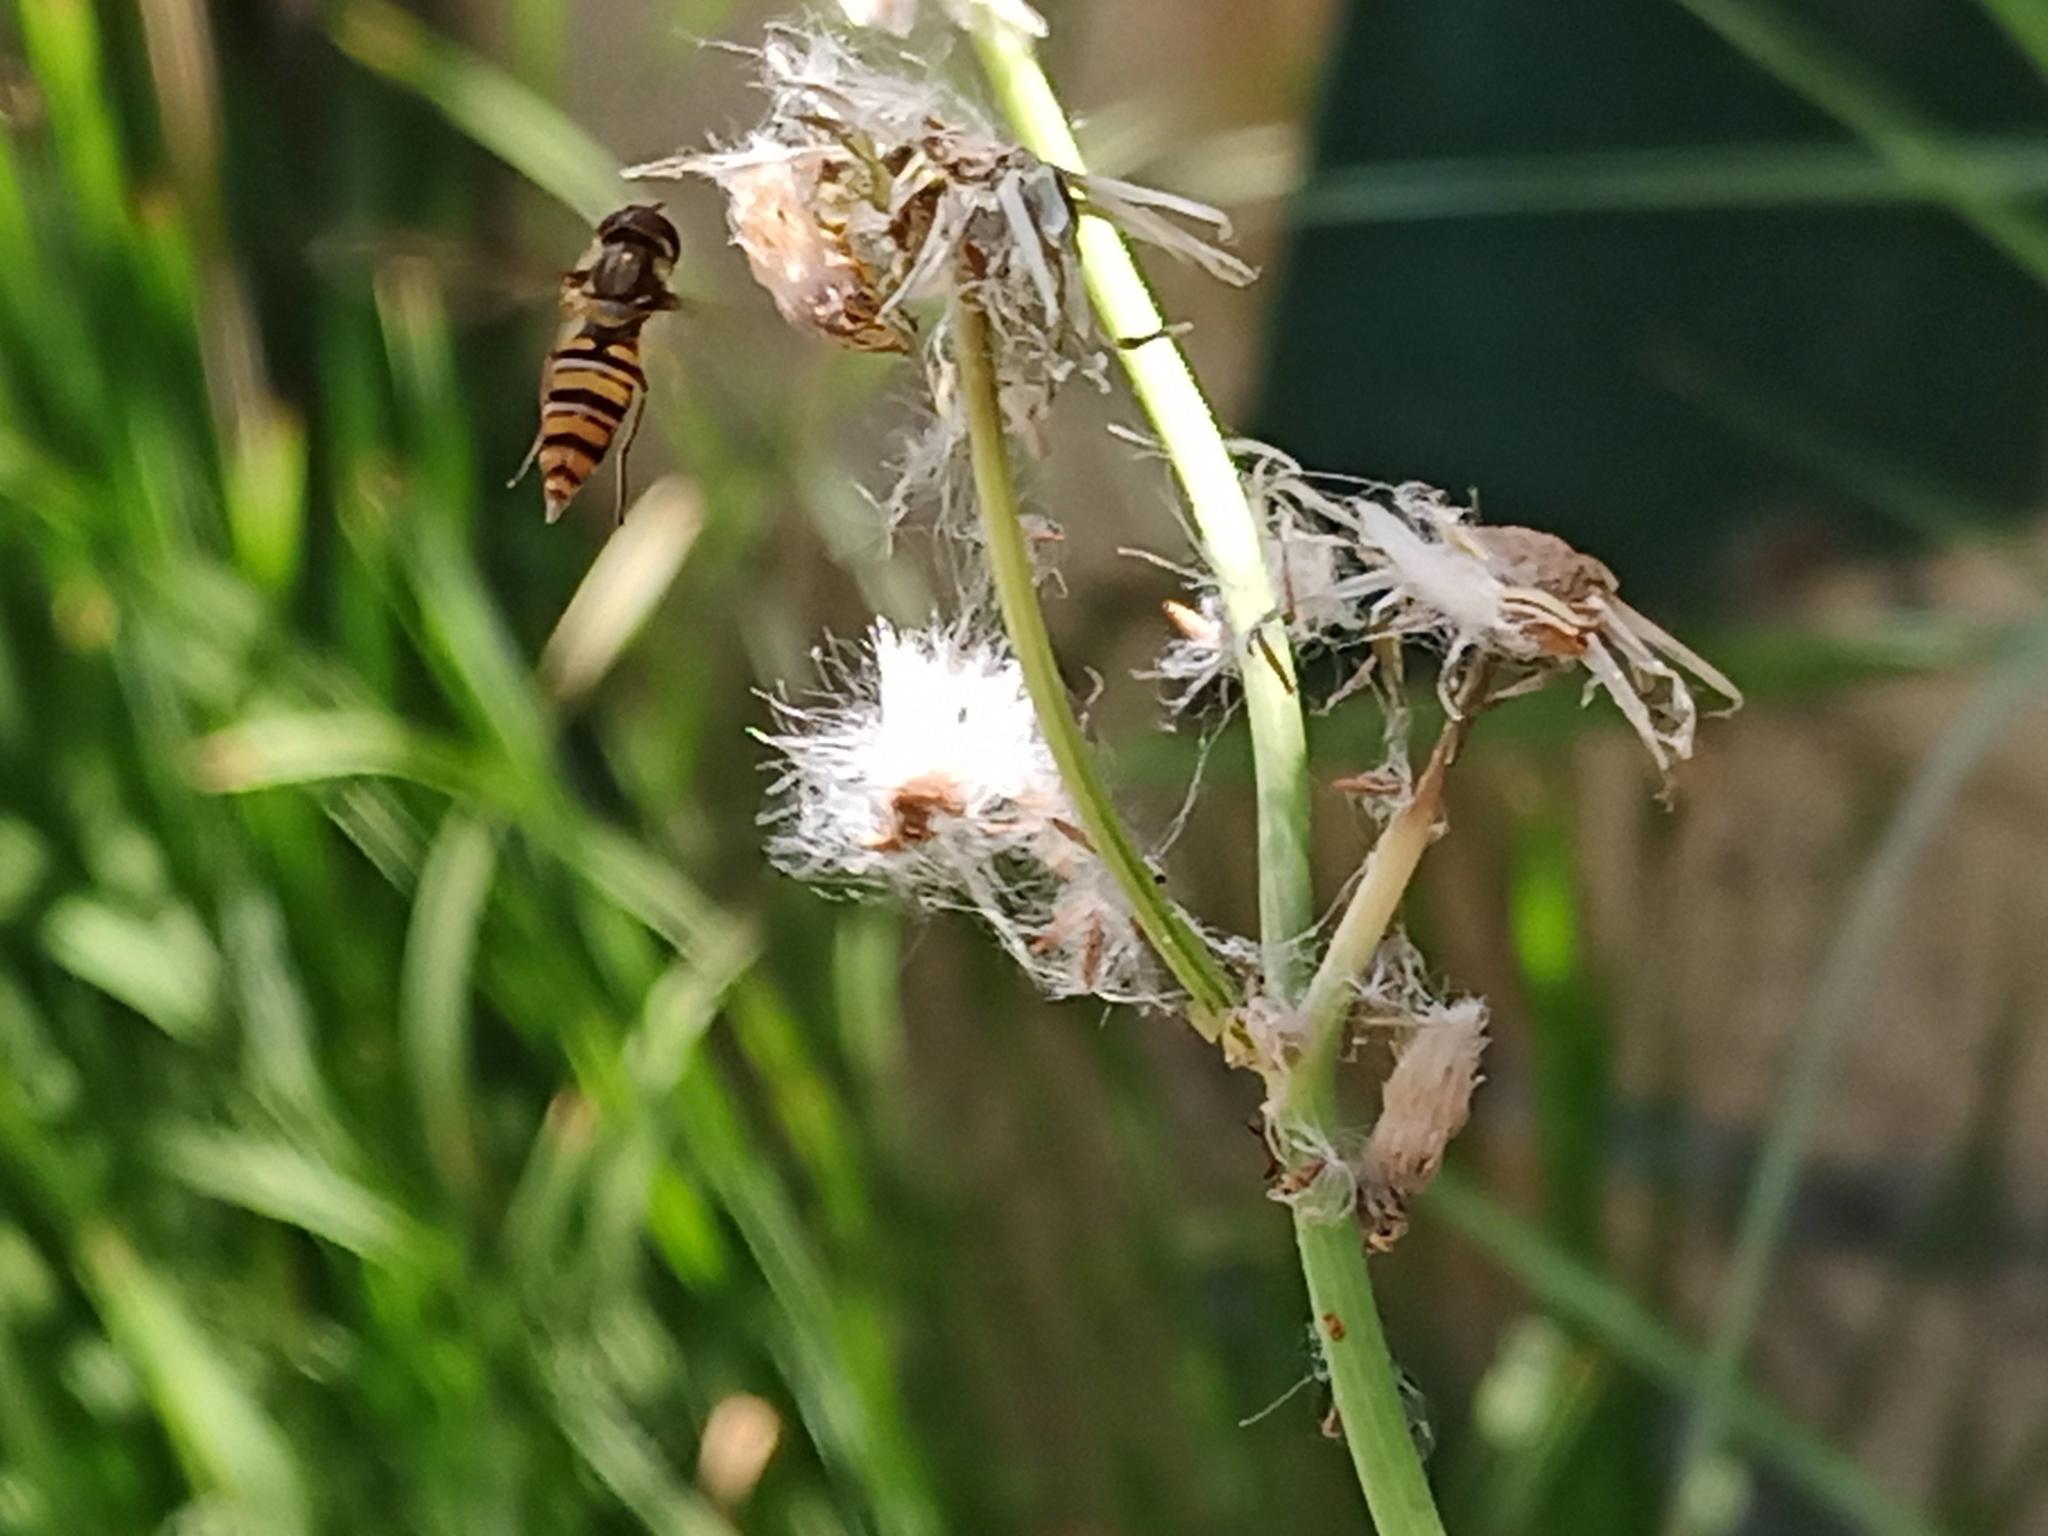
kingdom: Animalia
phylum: Arthropoda
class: Insecta
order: Diptera
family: Syrphidae
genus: Episyrphus
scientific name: Episyrphus balteatus
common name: Marmalade hoverfly
